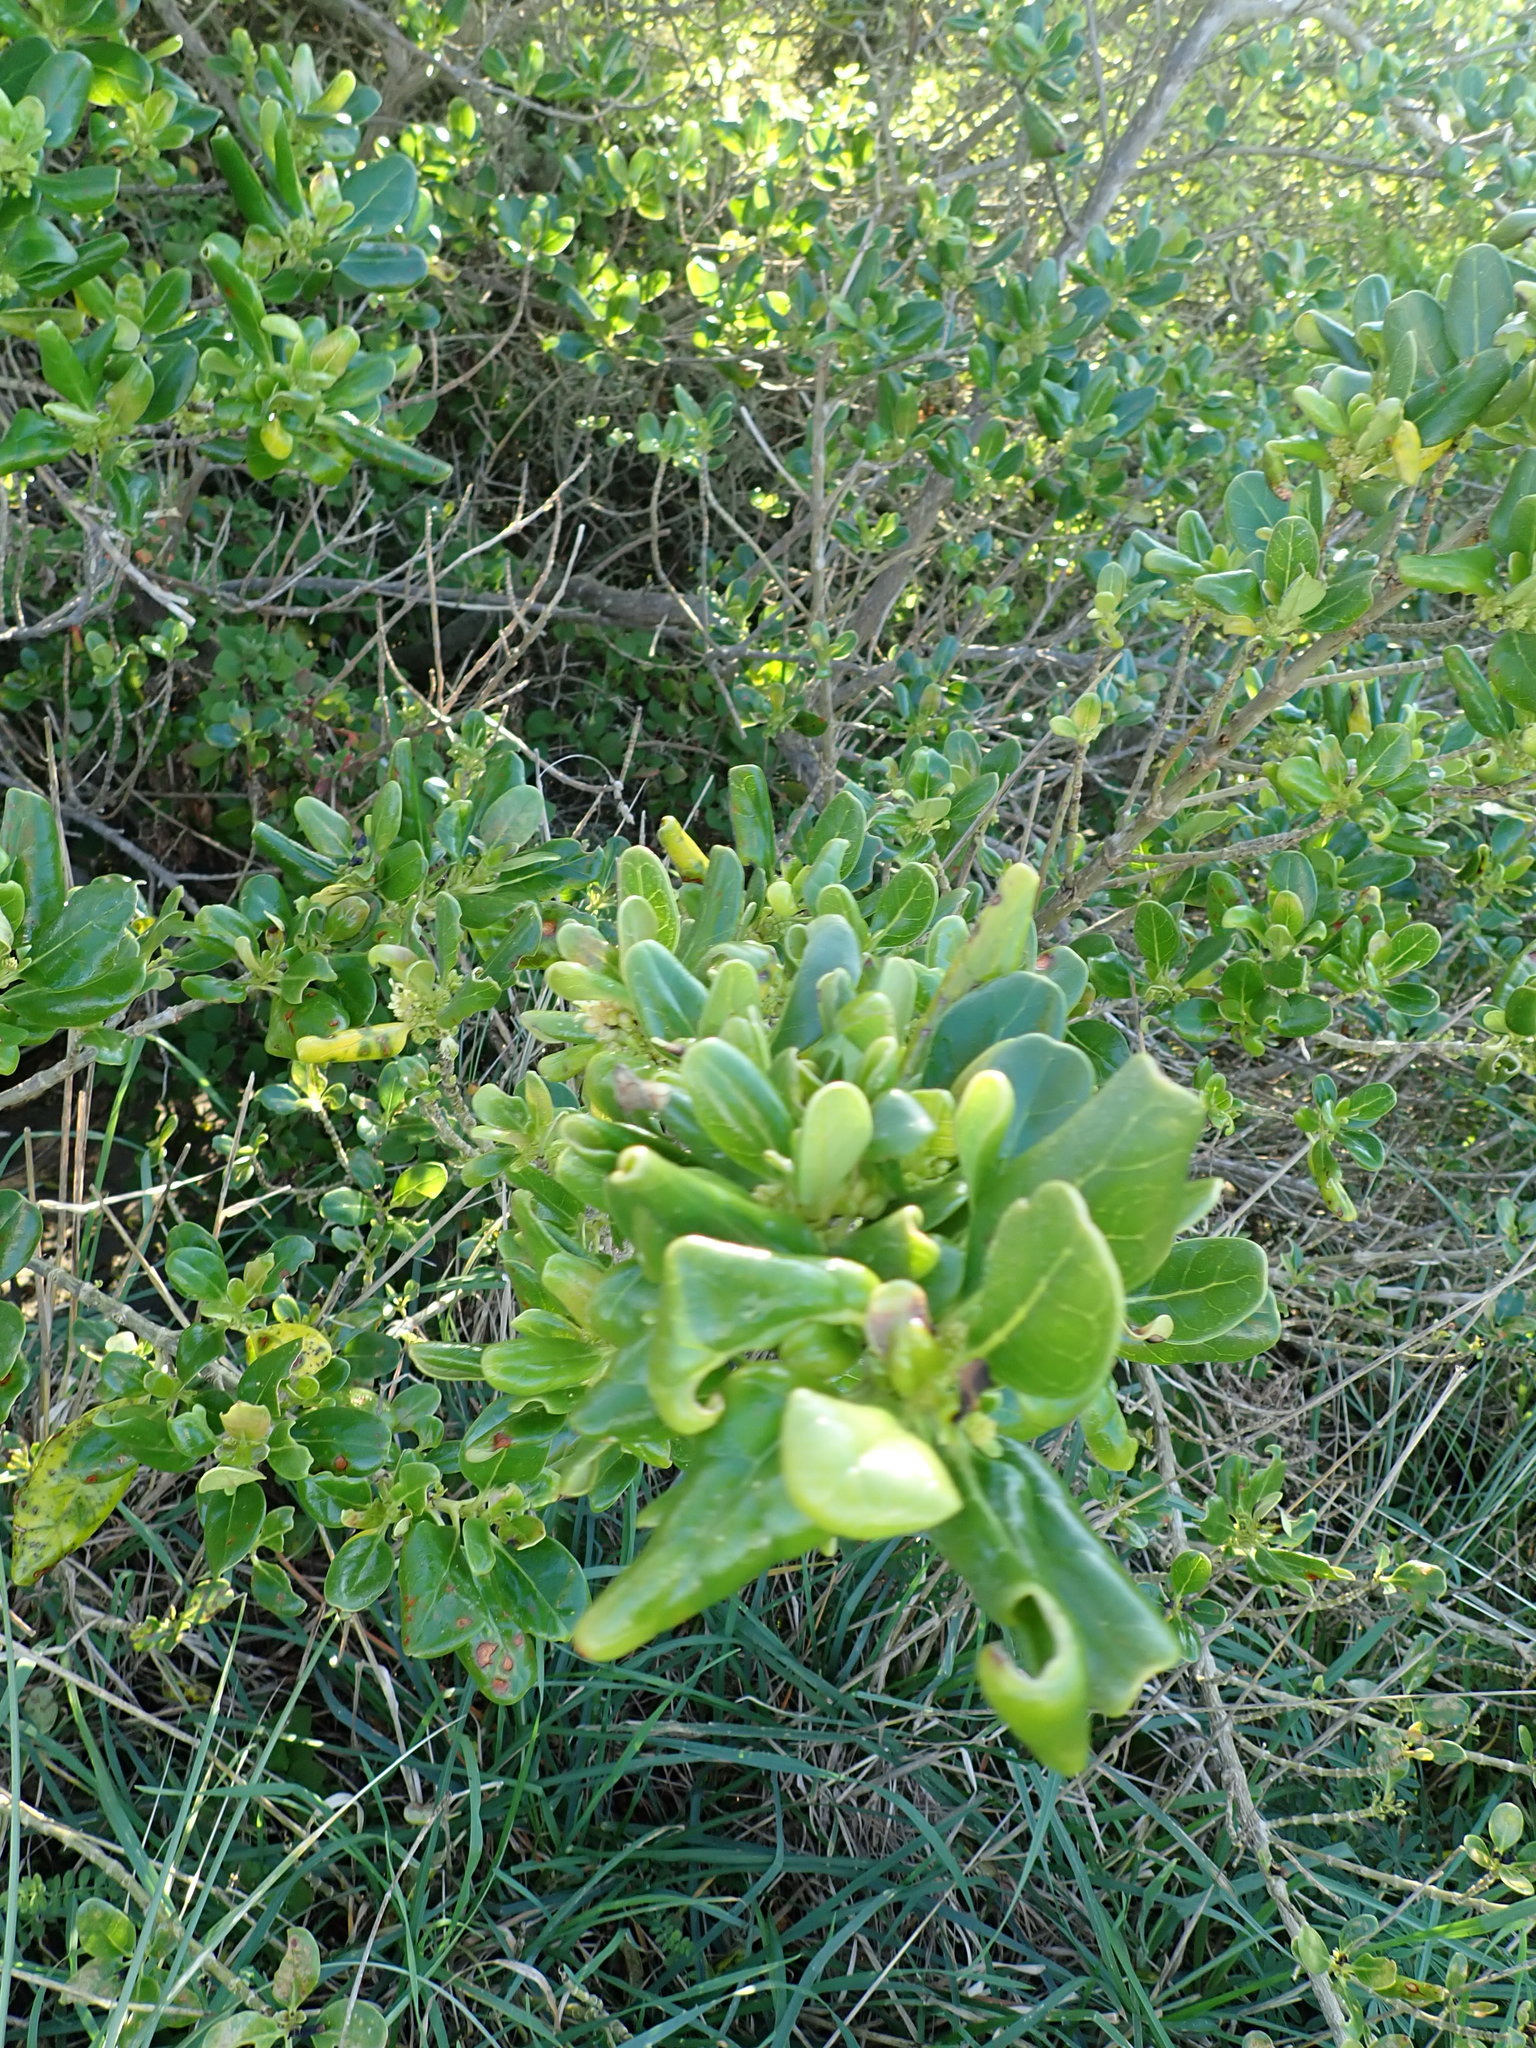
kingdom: Plantae
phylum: Tracheophyta
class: Magnoliopsida
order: Gentianales
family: Rubiaceae
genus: Coprosma
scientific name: Coprosma repens
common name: Tree bedstraw
